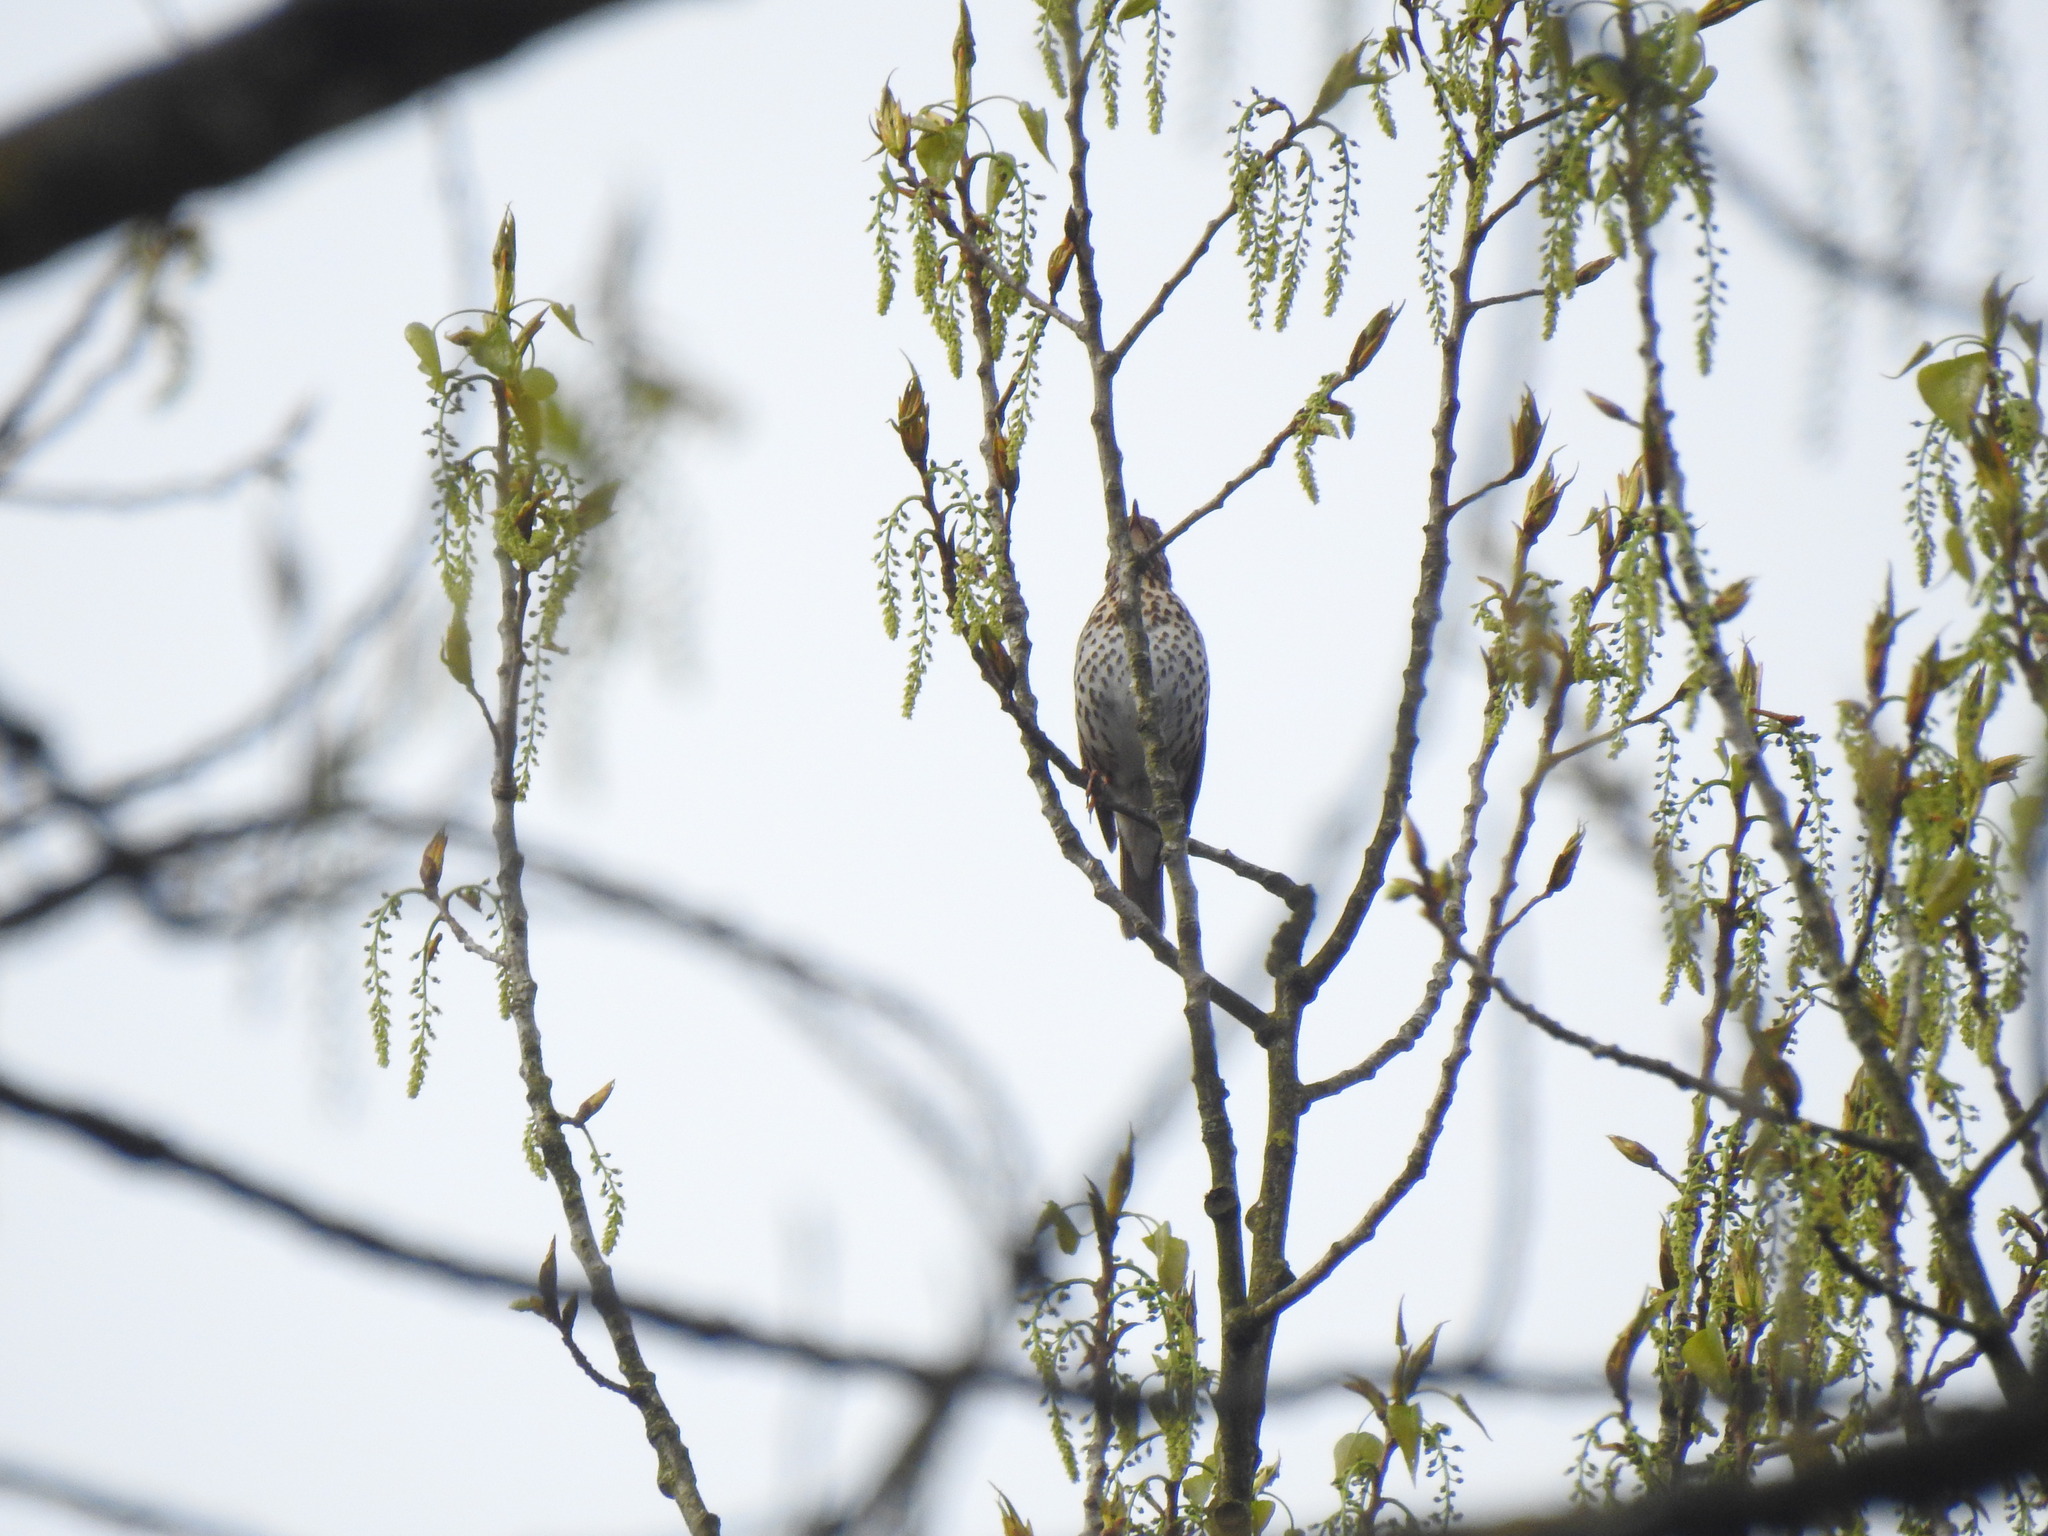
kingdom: Animalia
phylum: Chordata
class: Aves
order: Passeriformes
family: Turdidae
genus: Turdus
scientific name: Turdus philomelos
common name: Song thrush
